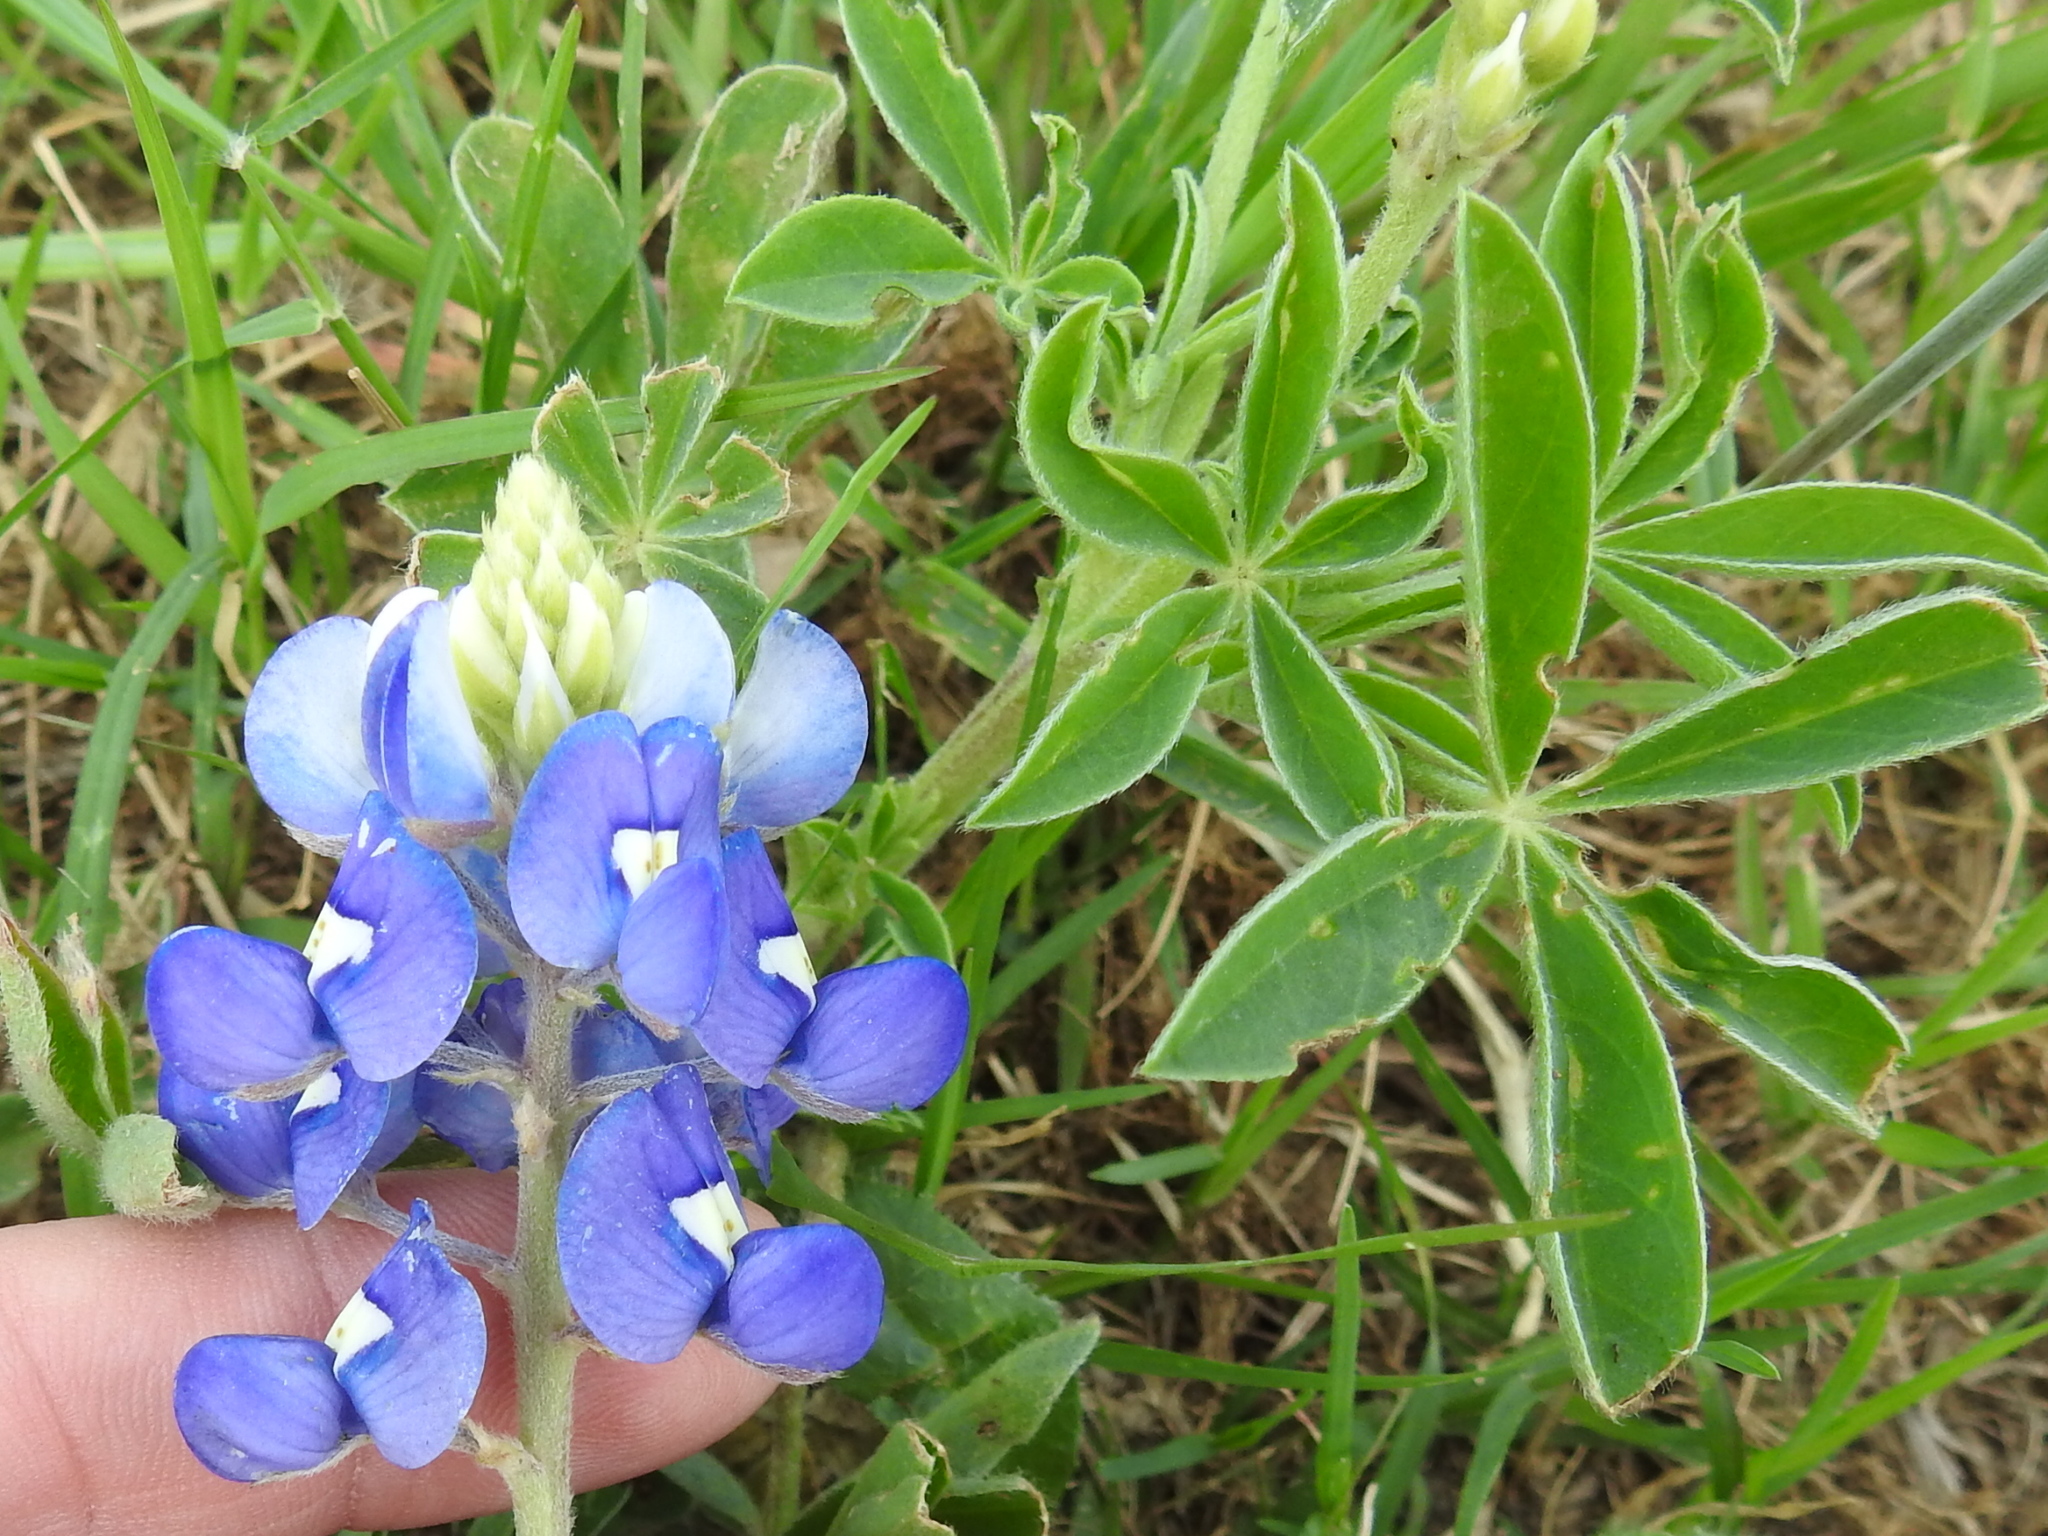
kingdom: Plantae
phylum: Tracheophyta
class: Magnoliopsida
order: Fabales
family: Fabaceae
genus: Lupinus
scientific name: Lupinus texensis
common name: Texas bluebonnet
